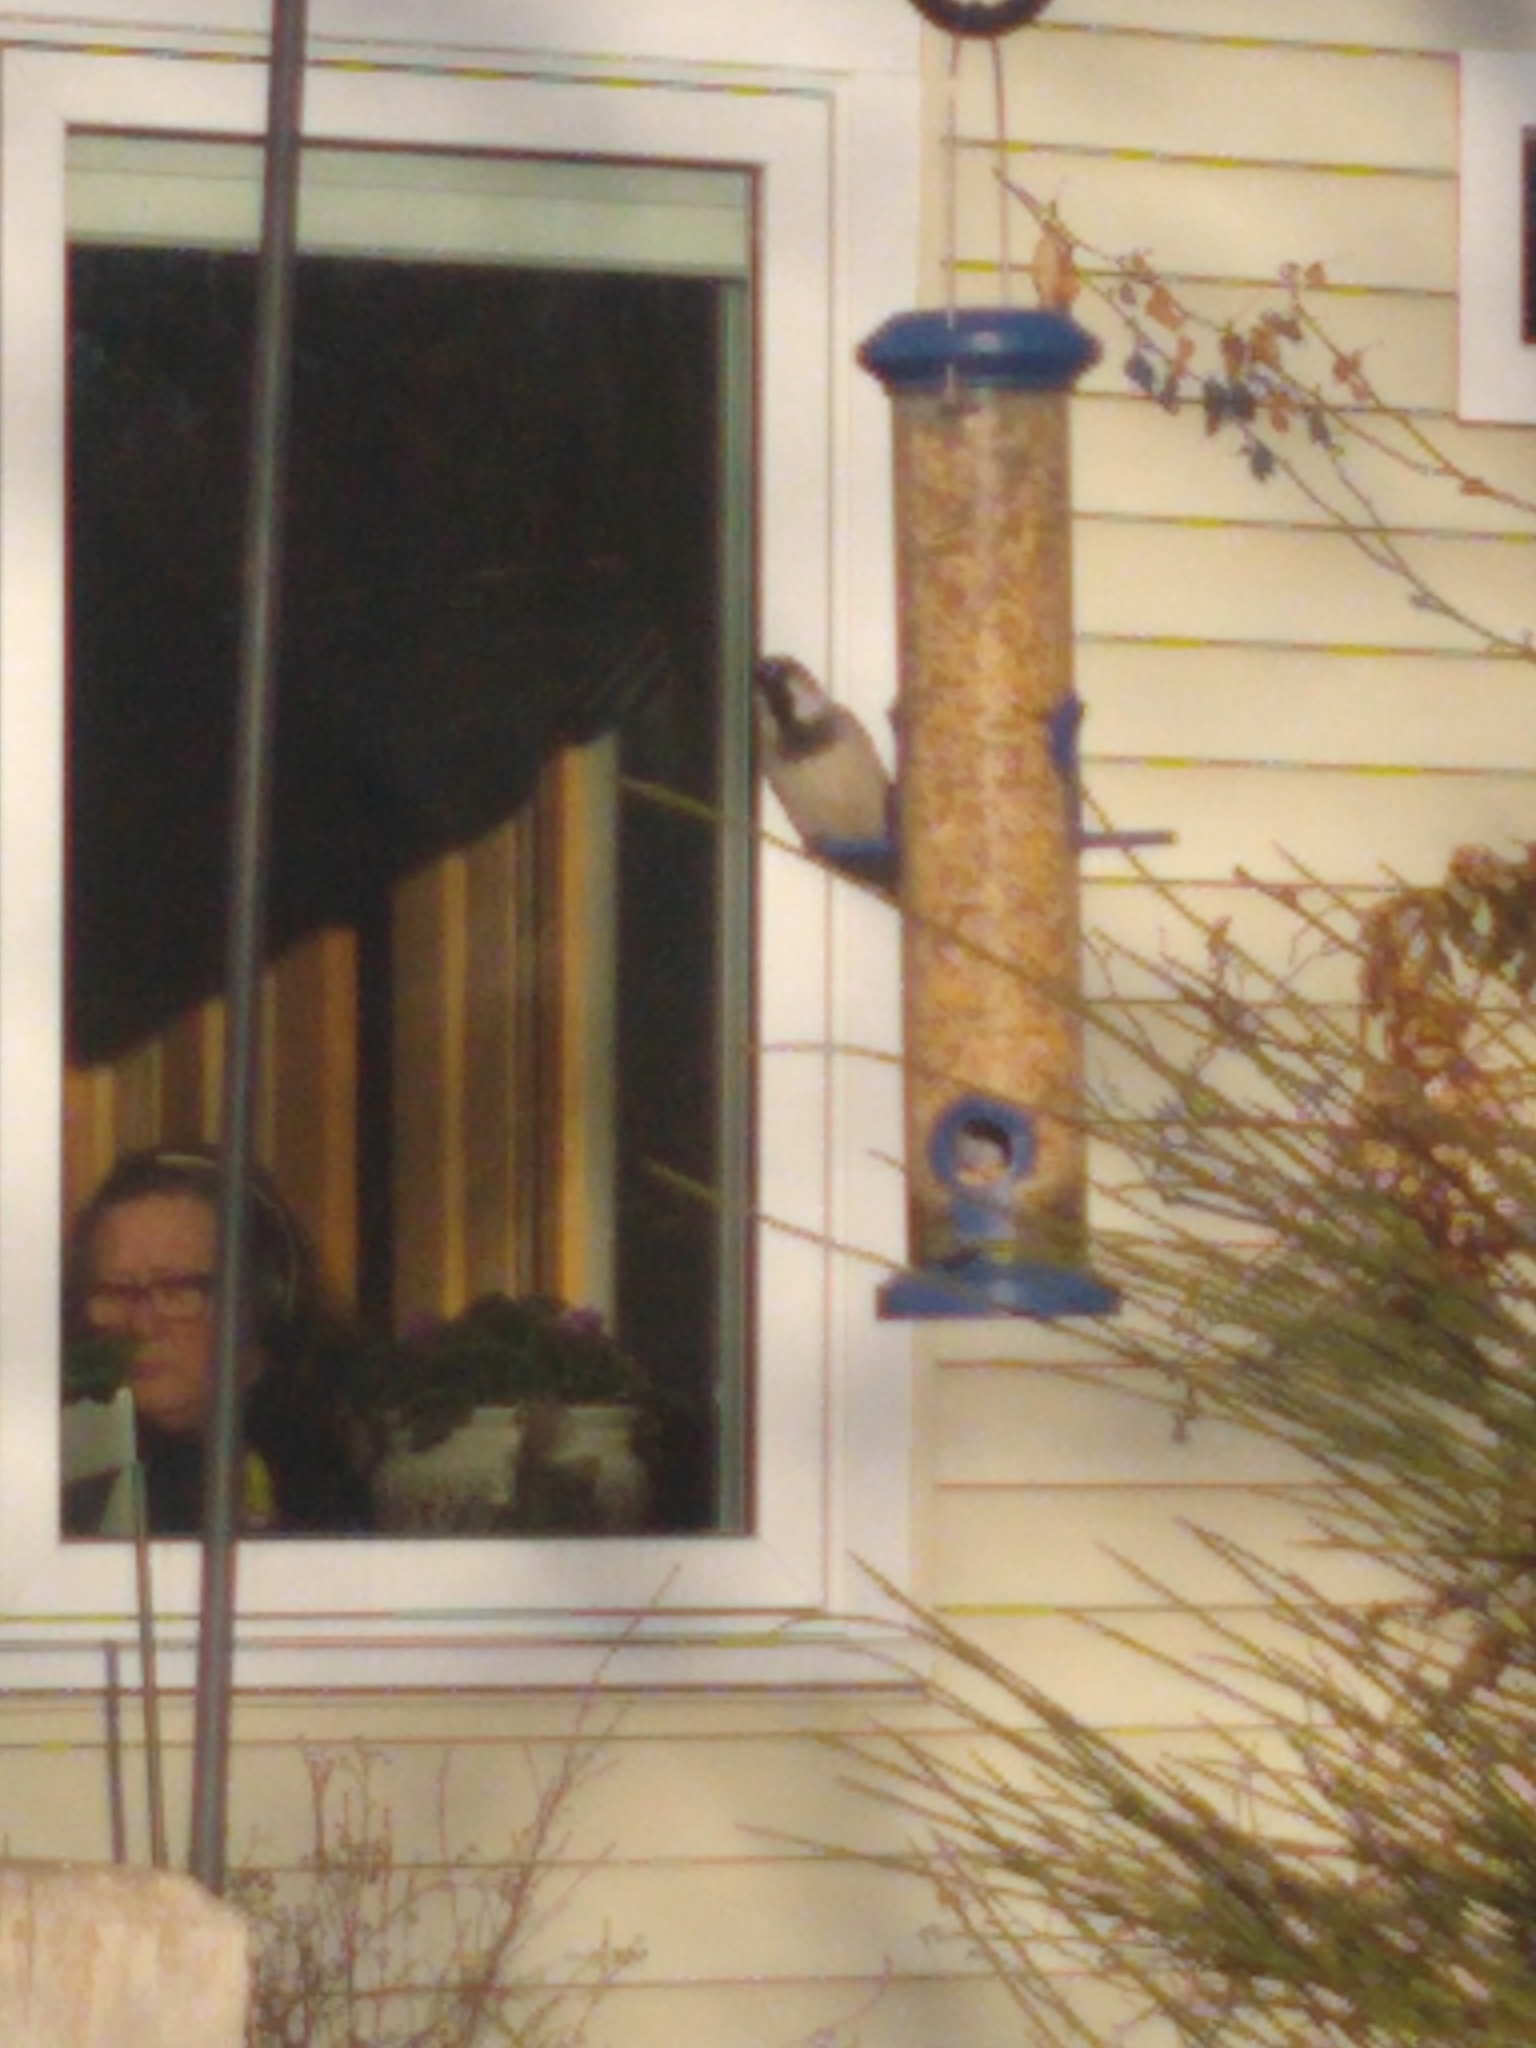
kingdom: Animalia
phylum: Chordata
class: Aves
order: Passeriformes
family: Passeridae
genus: Passer
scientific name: Passer domesticus
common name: House sparrow
